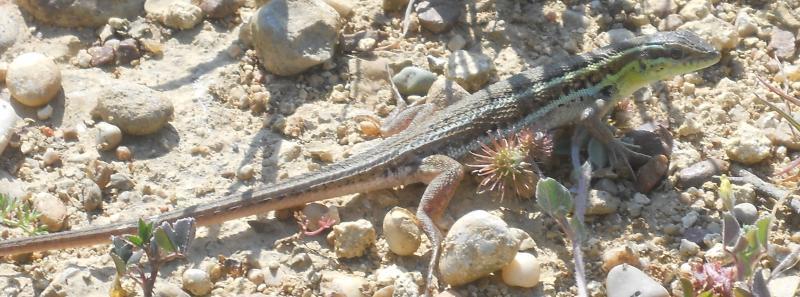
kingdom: Animalia
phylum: Chordata
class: Squamata
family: Lacertidae
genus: Ophisops
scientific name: Ophisops elegans
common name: Snake-eyed lizard
